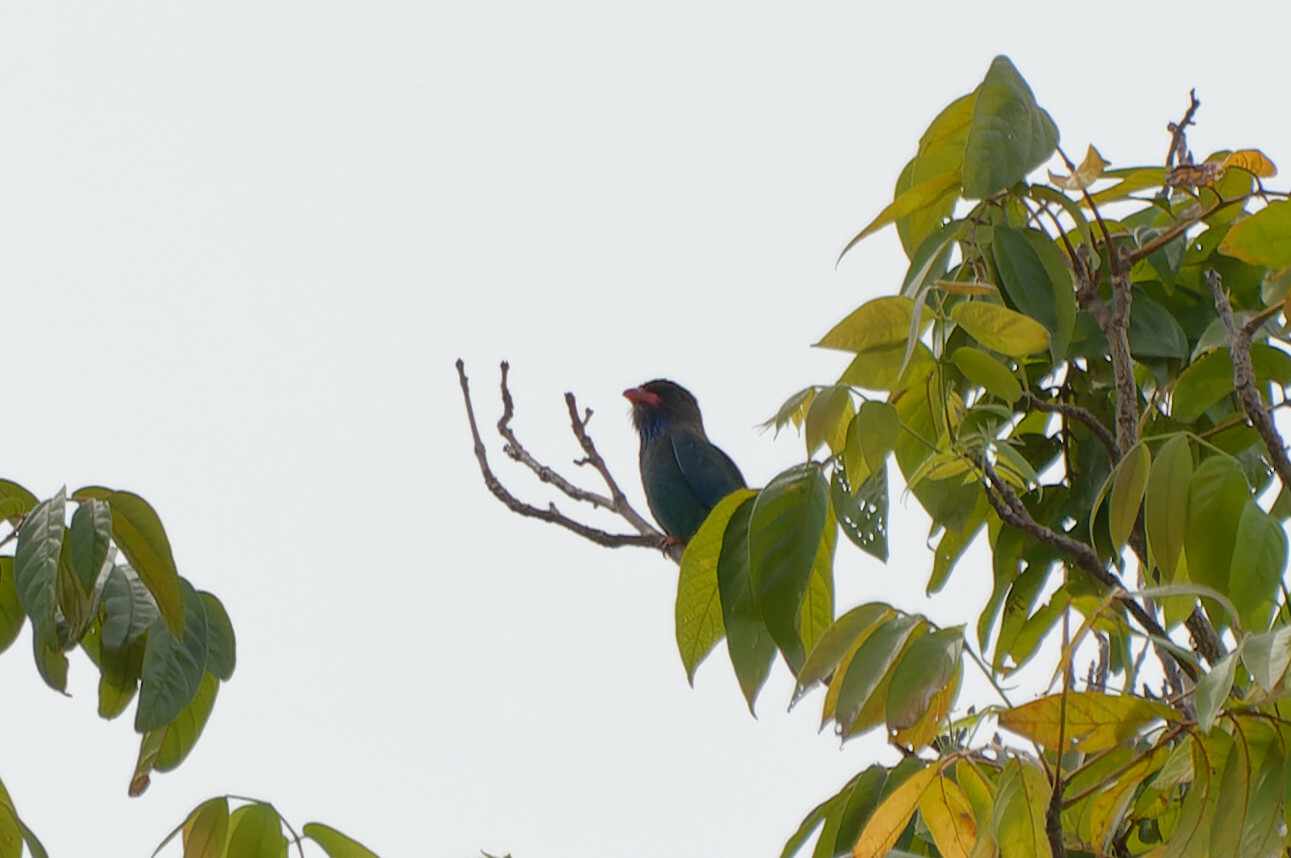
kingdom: Animalia
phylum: Chordata
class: Aves
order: Coraciiformes
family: Coraciidae
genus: Eurystomus
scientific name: Eurystomus orientalis
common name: Oriental dollarbird
